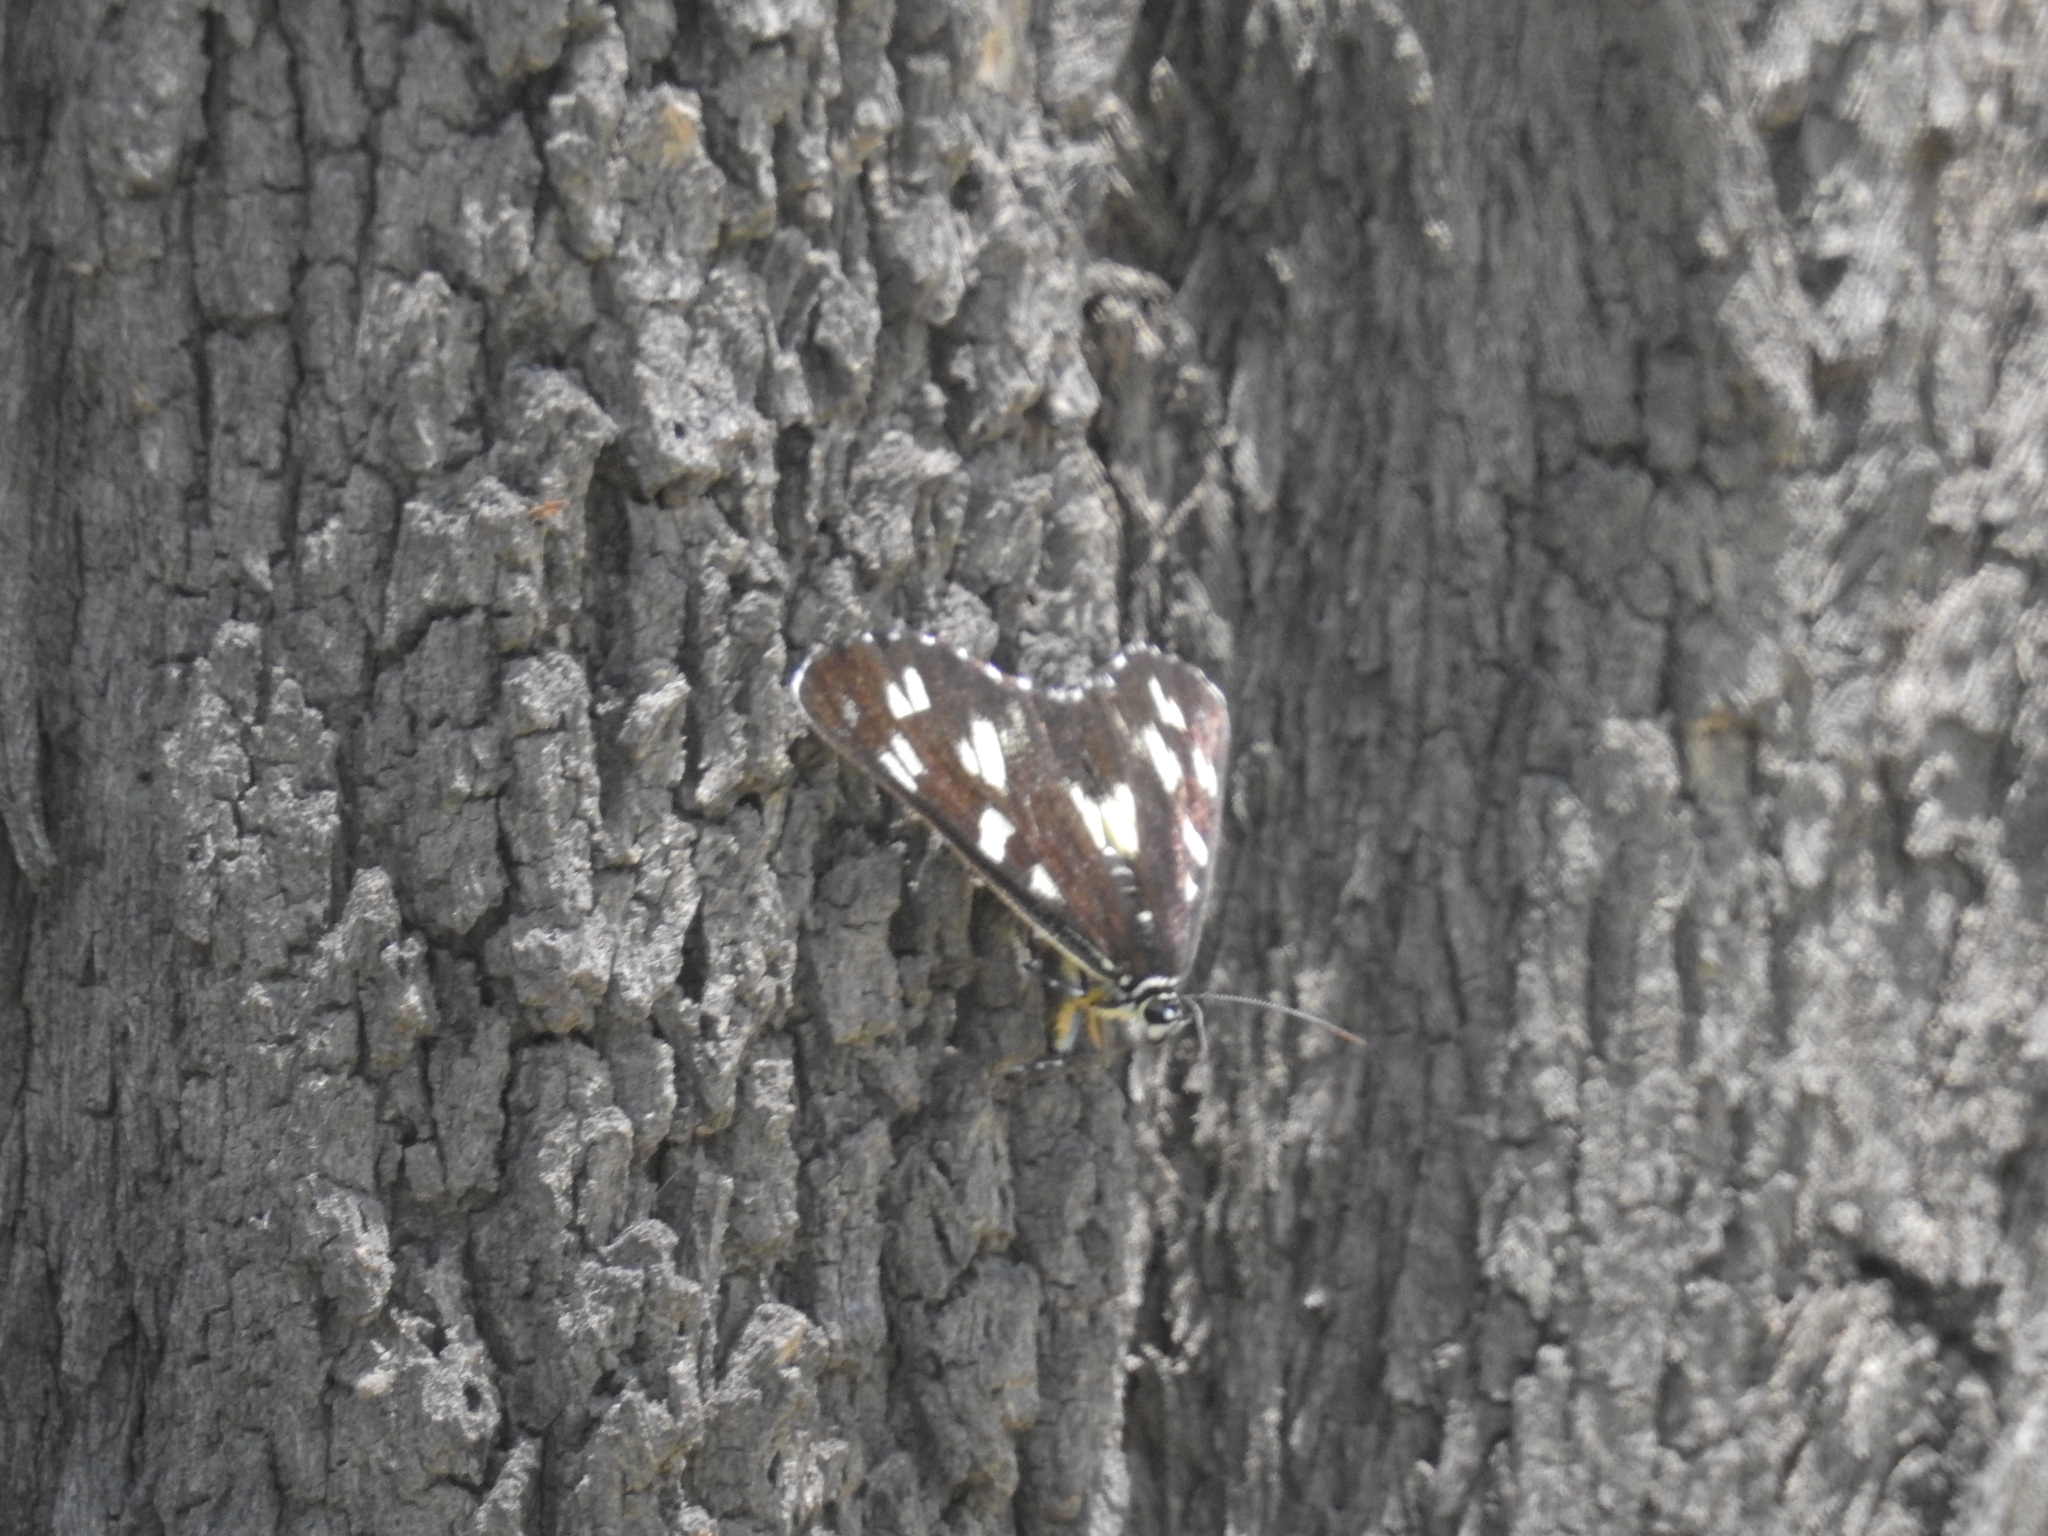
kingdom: Animalia
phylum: Arthropoda
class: Insecta
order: Lepidoptera
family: Noctuidae
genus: Cruria
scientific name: Cruria donowani
